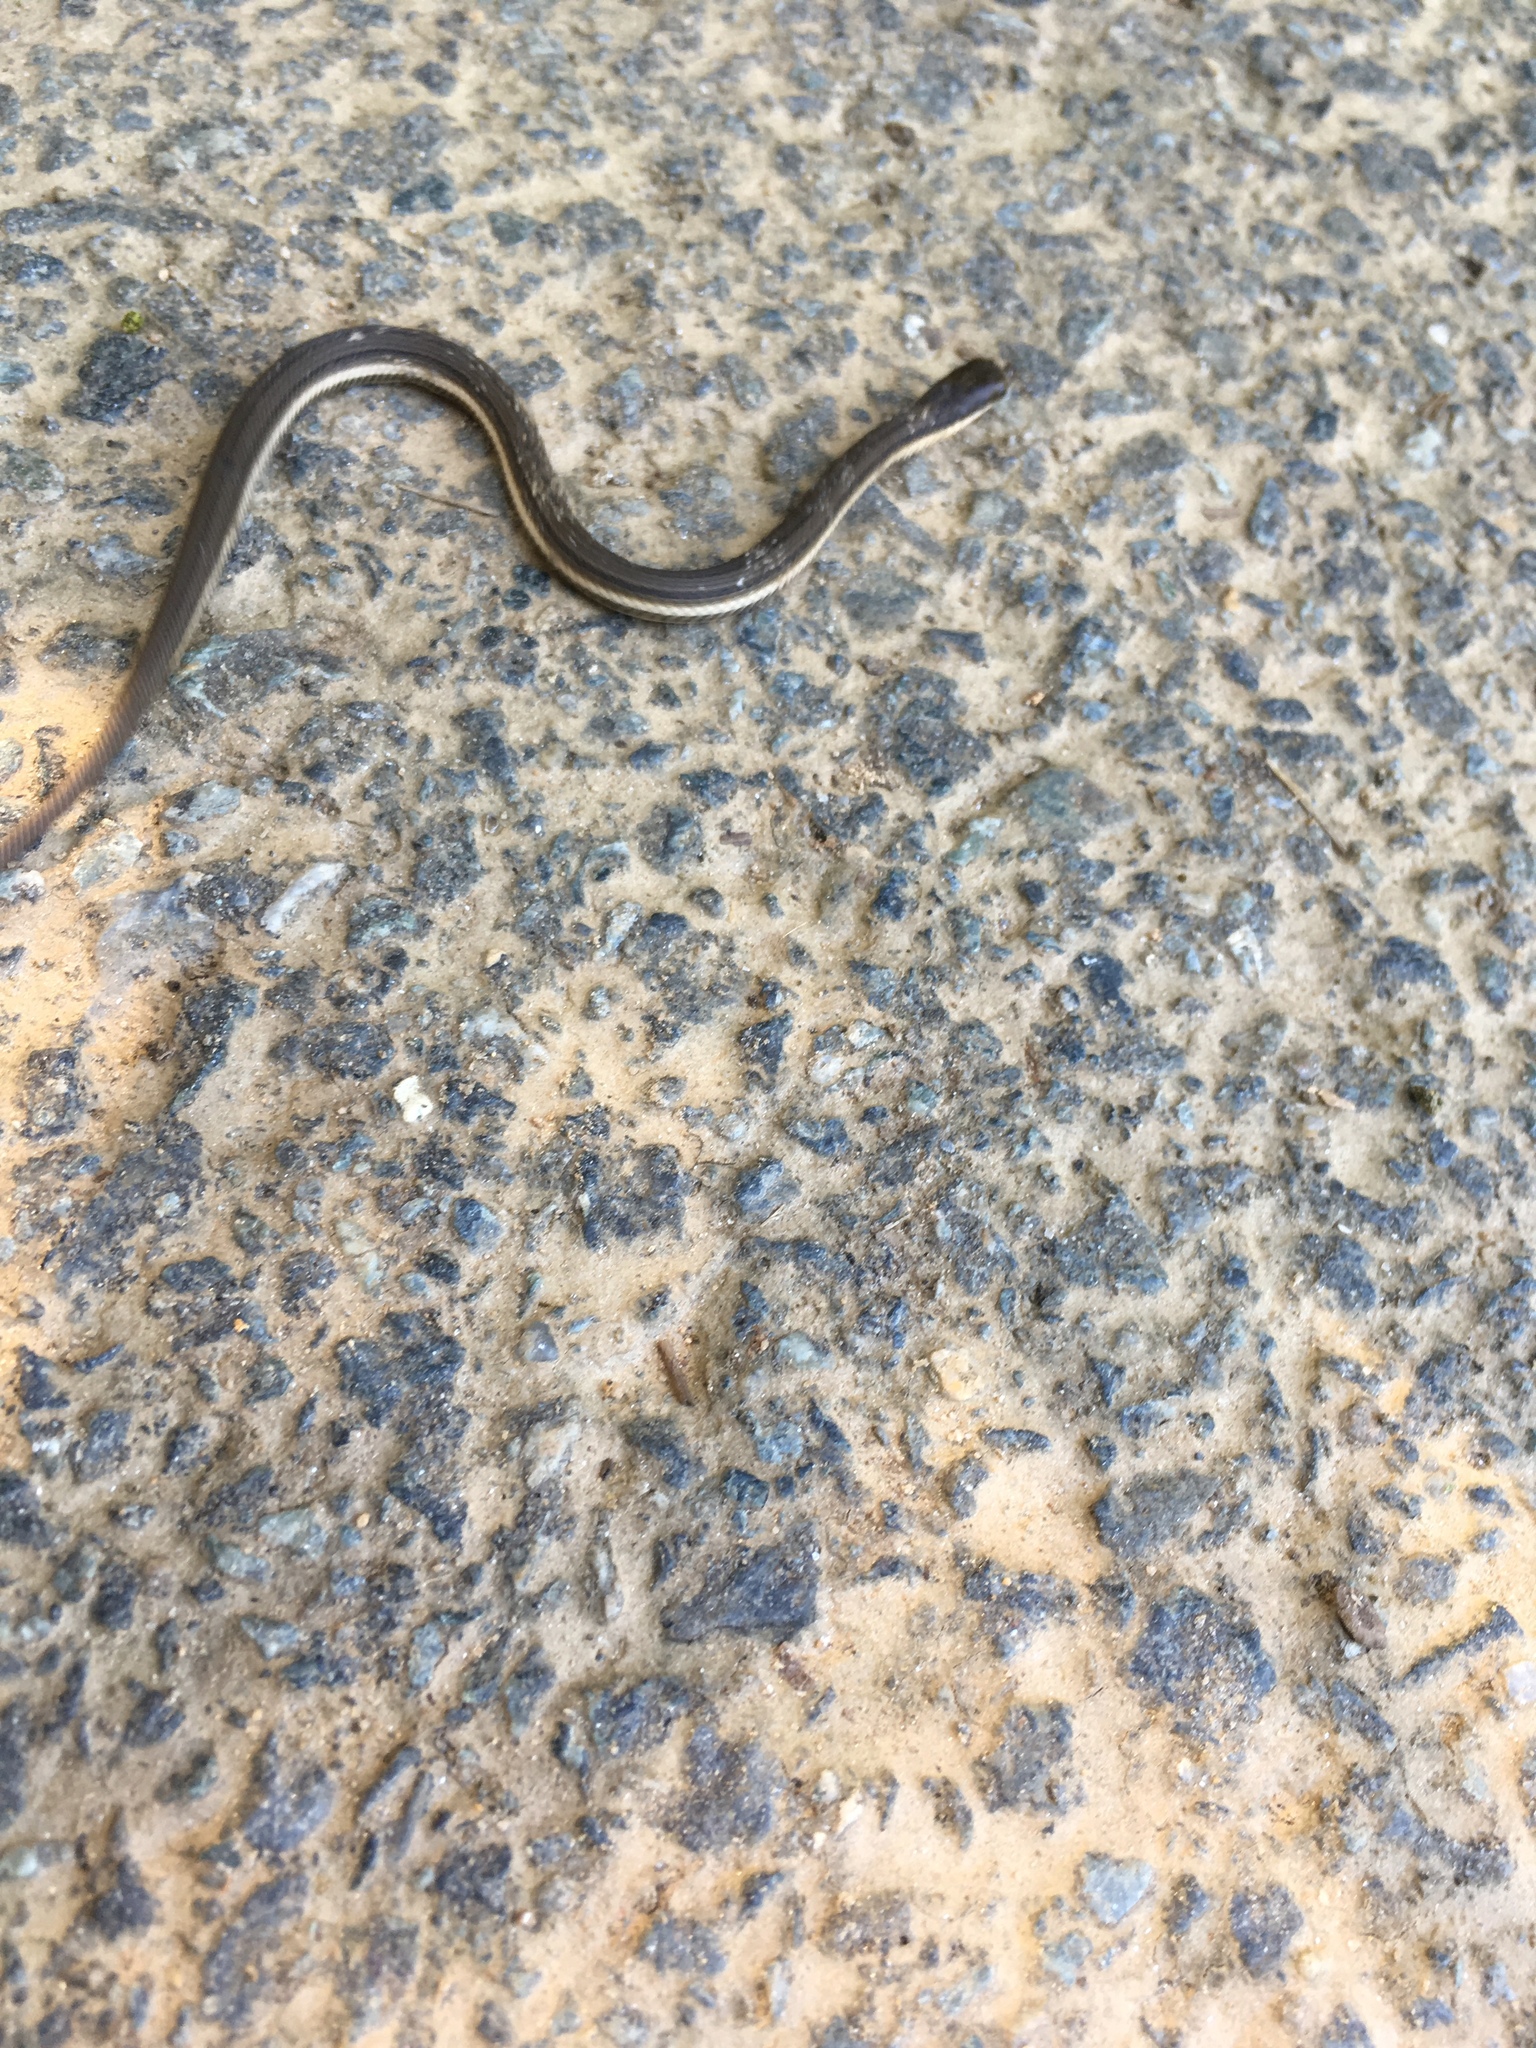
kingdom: Animalia
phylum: Chordata
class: Squamata
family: Colubridae
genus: Regina
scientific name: Regina septemvittata
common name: Queen snake
